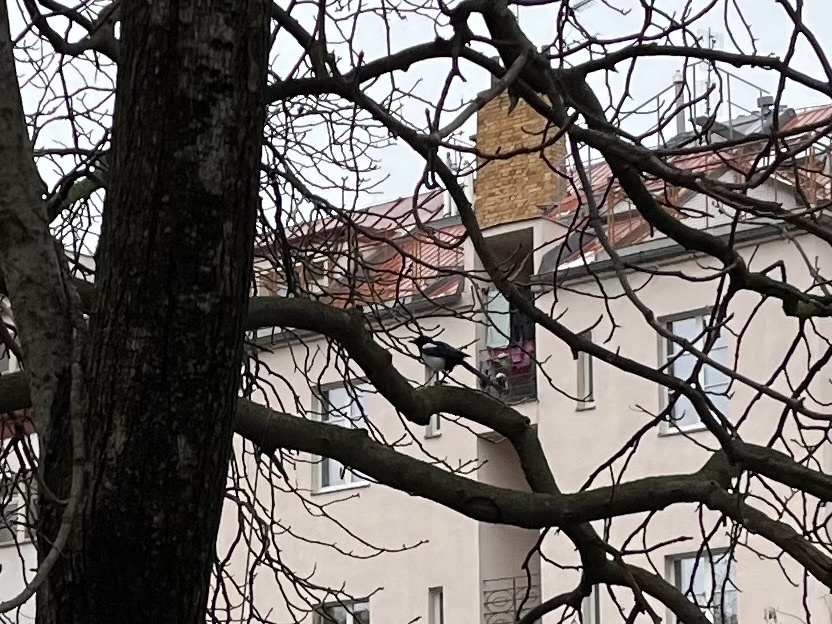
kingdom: Animalia
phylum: Chordata
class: Aves
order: Passeriformes
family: Corvidae
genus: Pica
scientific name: Pica pica
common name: Eurasian magpie
